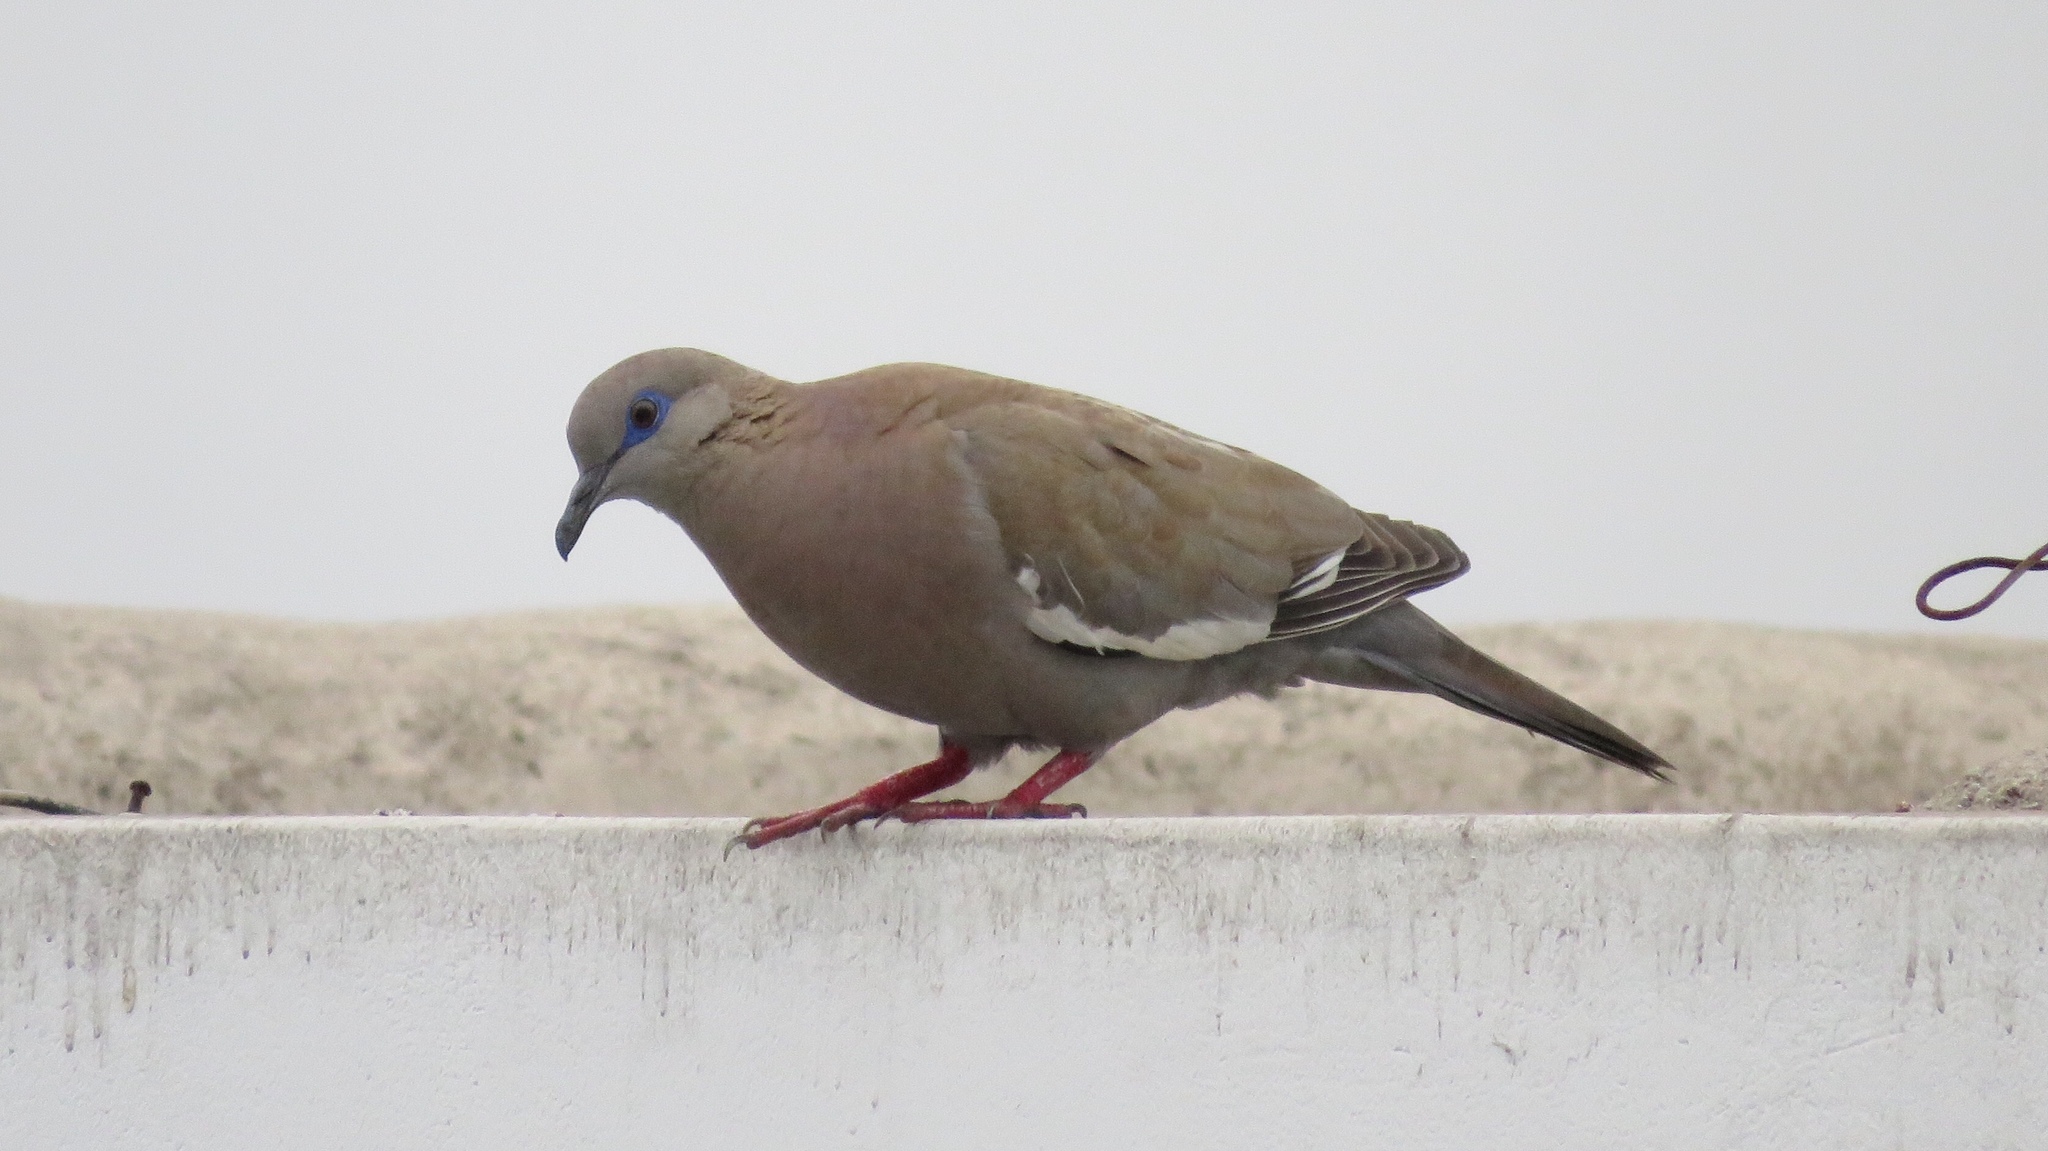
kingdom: Animalia
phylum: Chordata
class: Aves
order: Columbiformes
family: Columbidae
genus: Zenaida
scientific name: Zenaida meloda
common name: West peruvian dove
